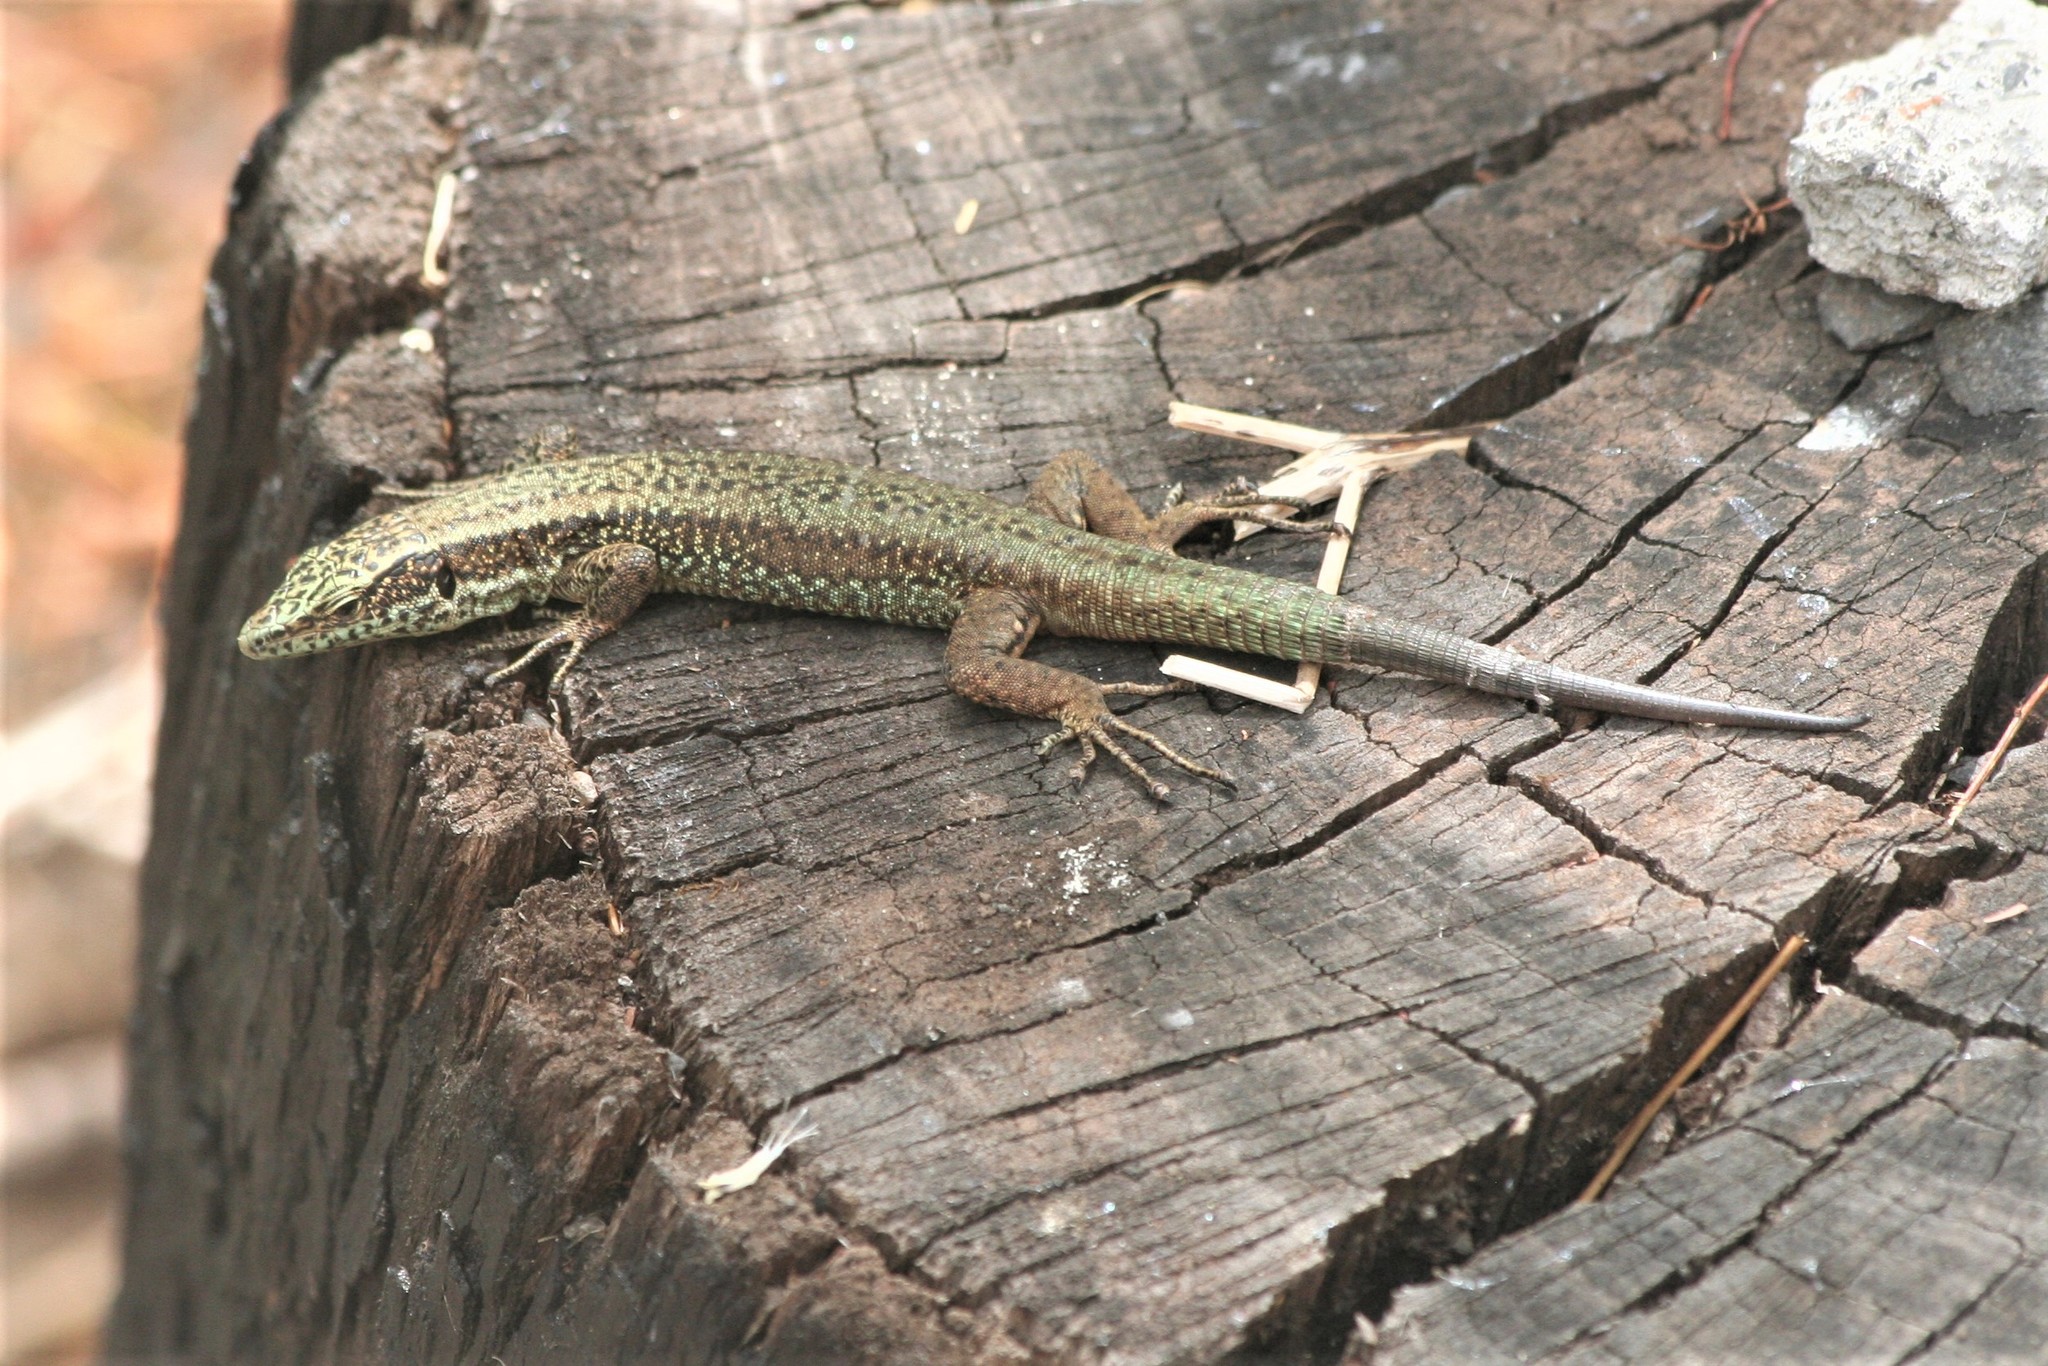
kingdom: Animalia
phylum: Chordata
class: Squamata
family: Lacertidae
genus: Teira
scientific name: Teira dugesii
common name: Madeira lizard
